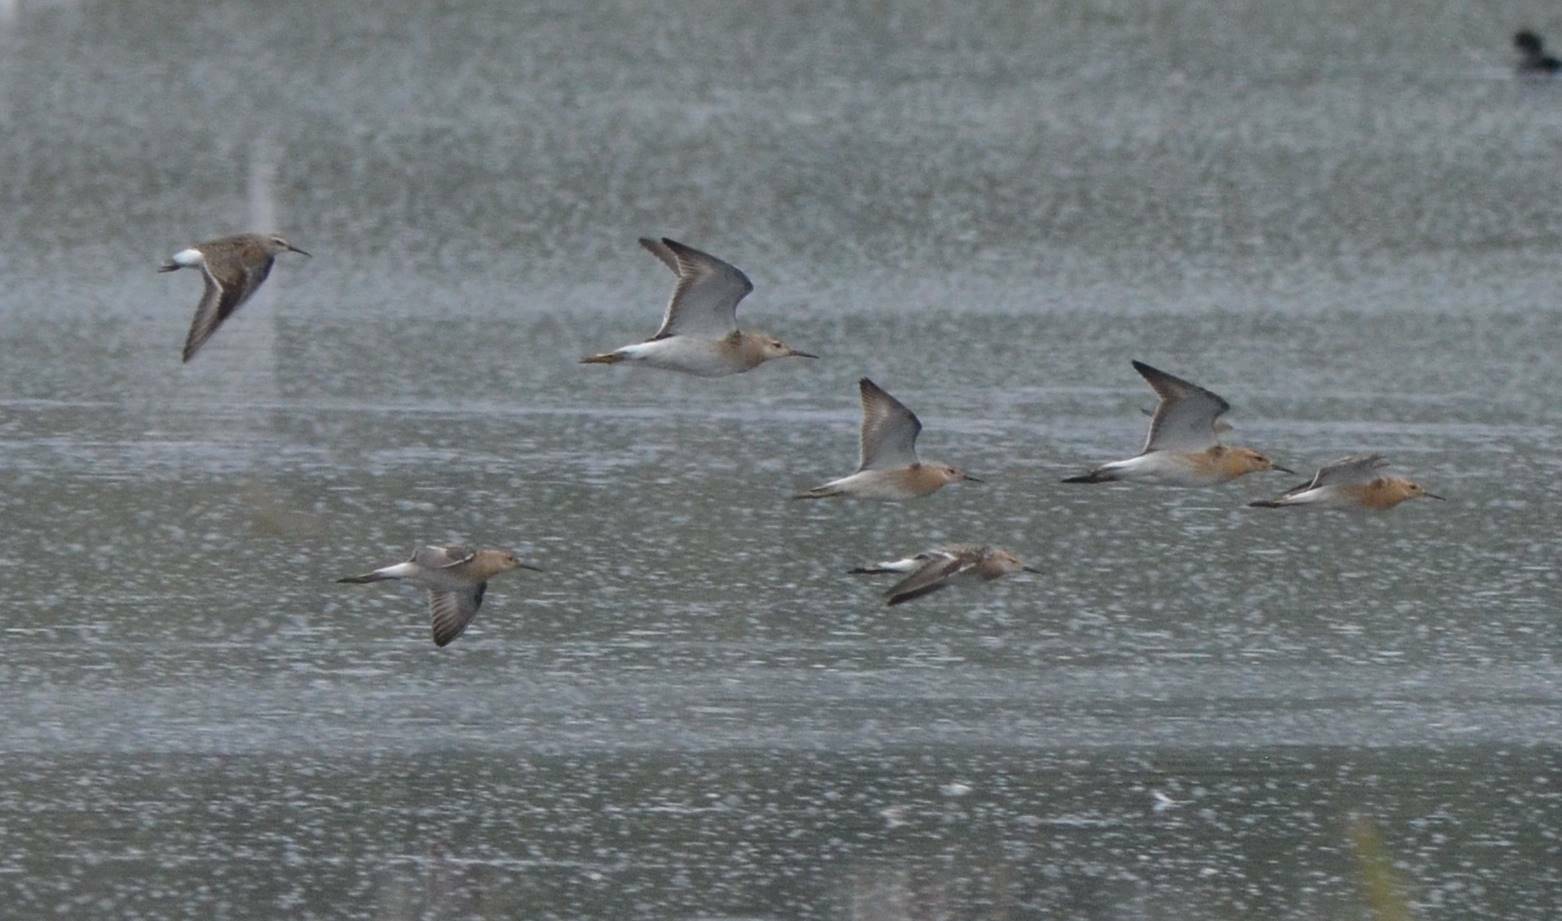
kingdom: Animalia
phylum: Chordata
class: Aves
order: Charadriiformes
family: Scolopacidae
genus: Calidris
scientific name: Calidris pugnax
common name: Ruff
